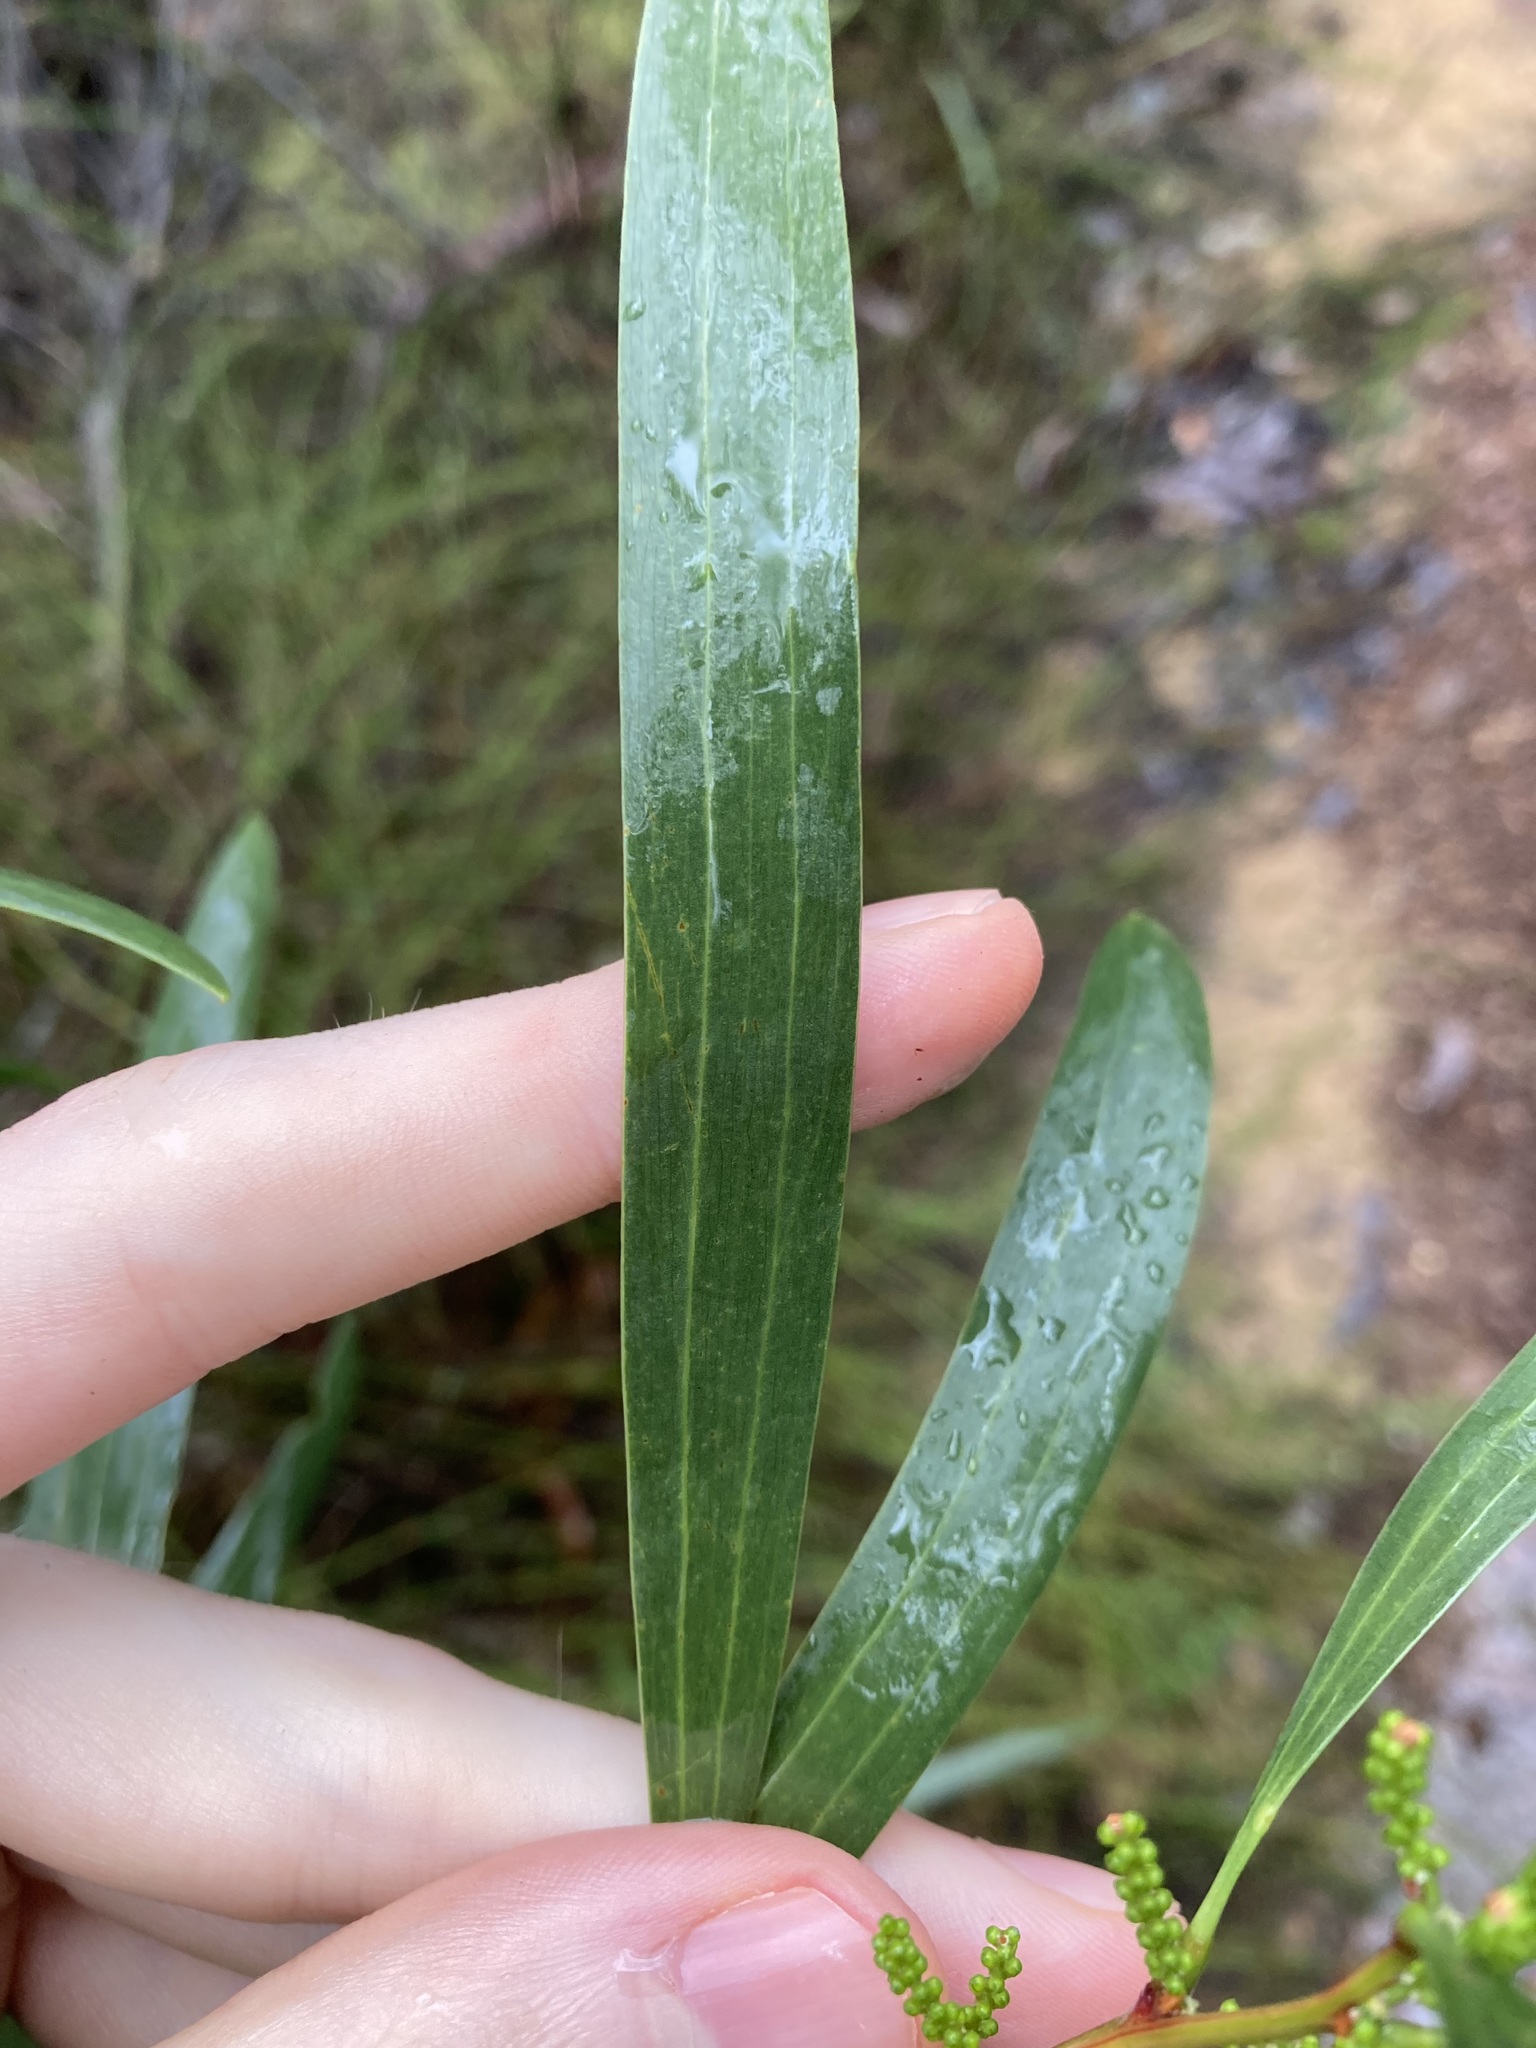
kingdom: Plantae
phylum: Tracheophyta
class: Magnoliopsida
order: Fabales
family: Fabaceae
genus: Acacia
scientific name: Acacia longifolia
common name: Sydney golden wattle
